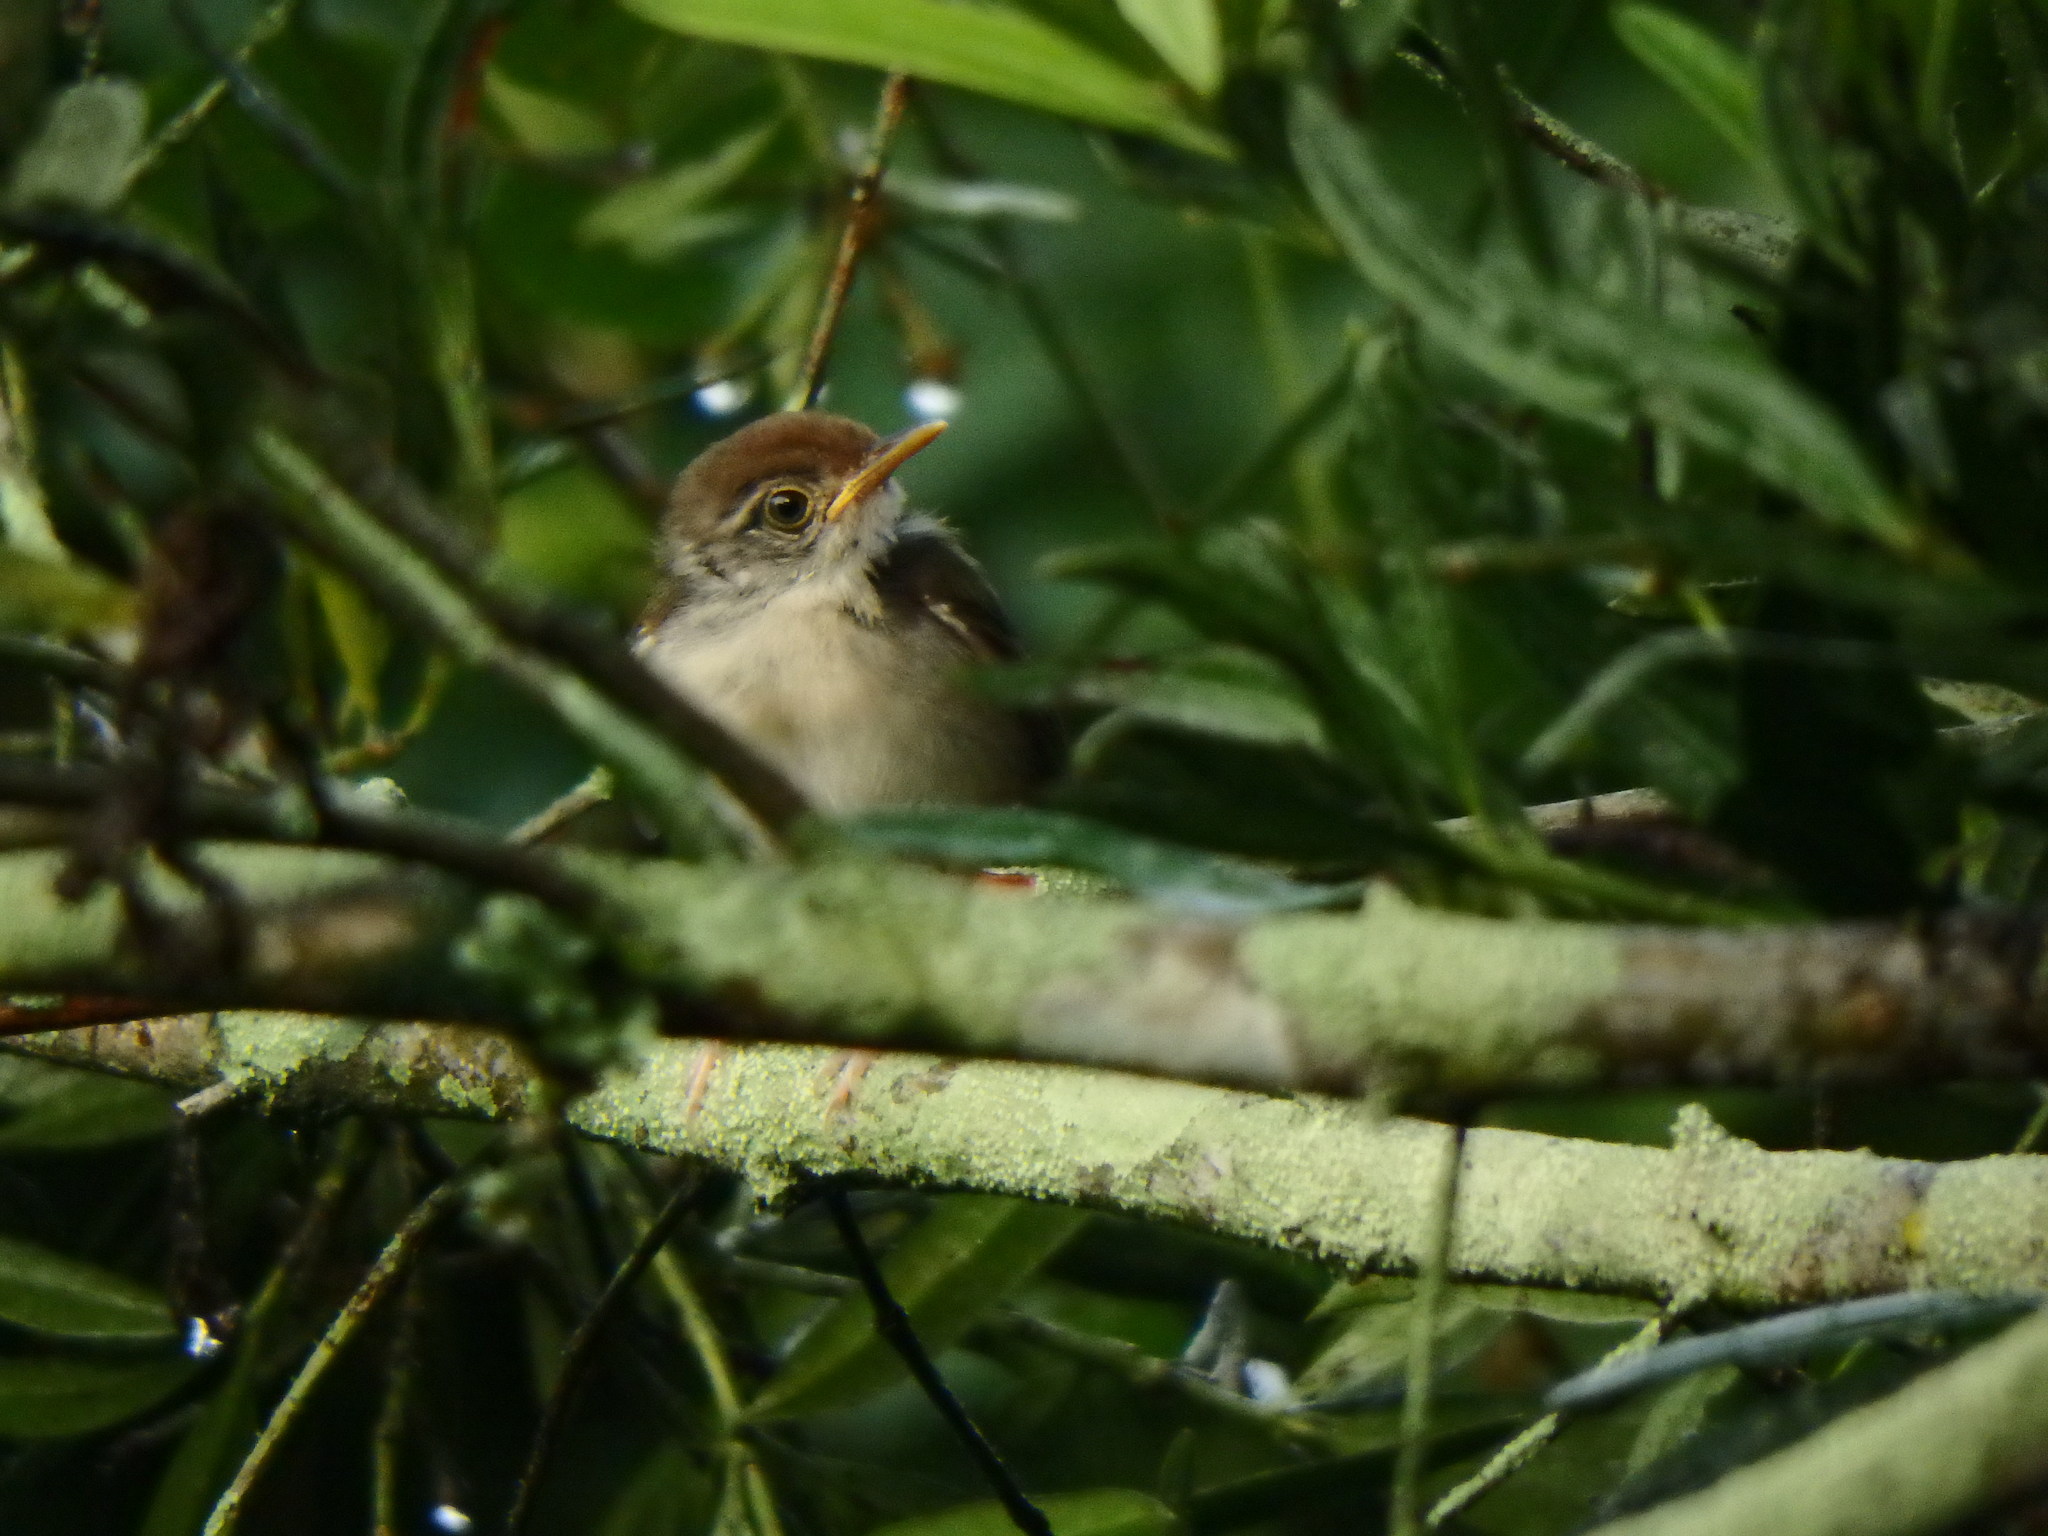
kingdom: Animalia
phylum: Chordata
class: Aves
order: Passeriformes
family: Cisticolidae
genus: Orthotomus
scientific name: Orthotomus sutorius
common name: Common tailorbird
